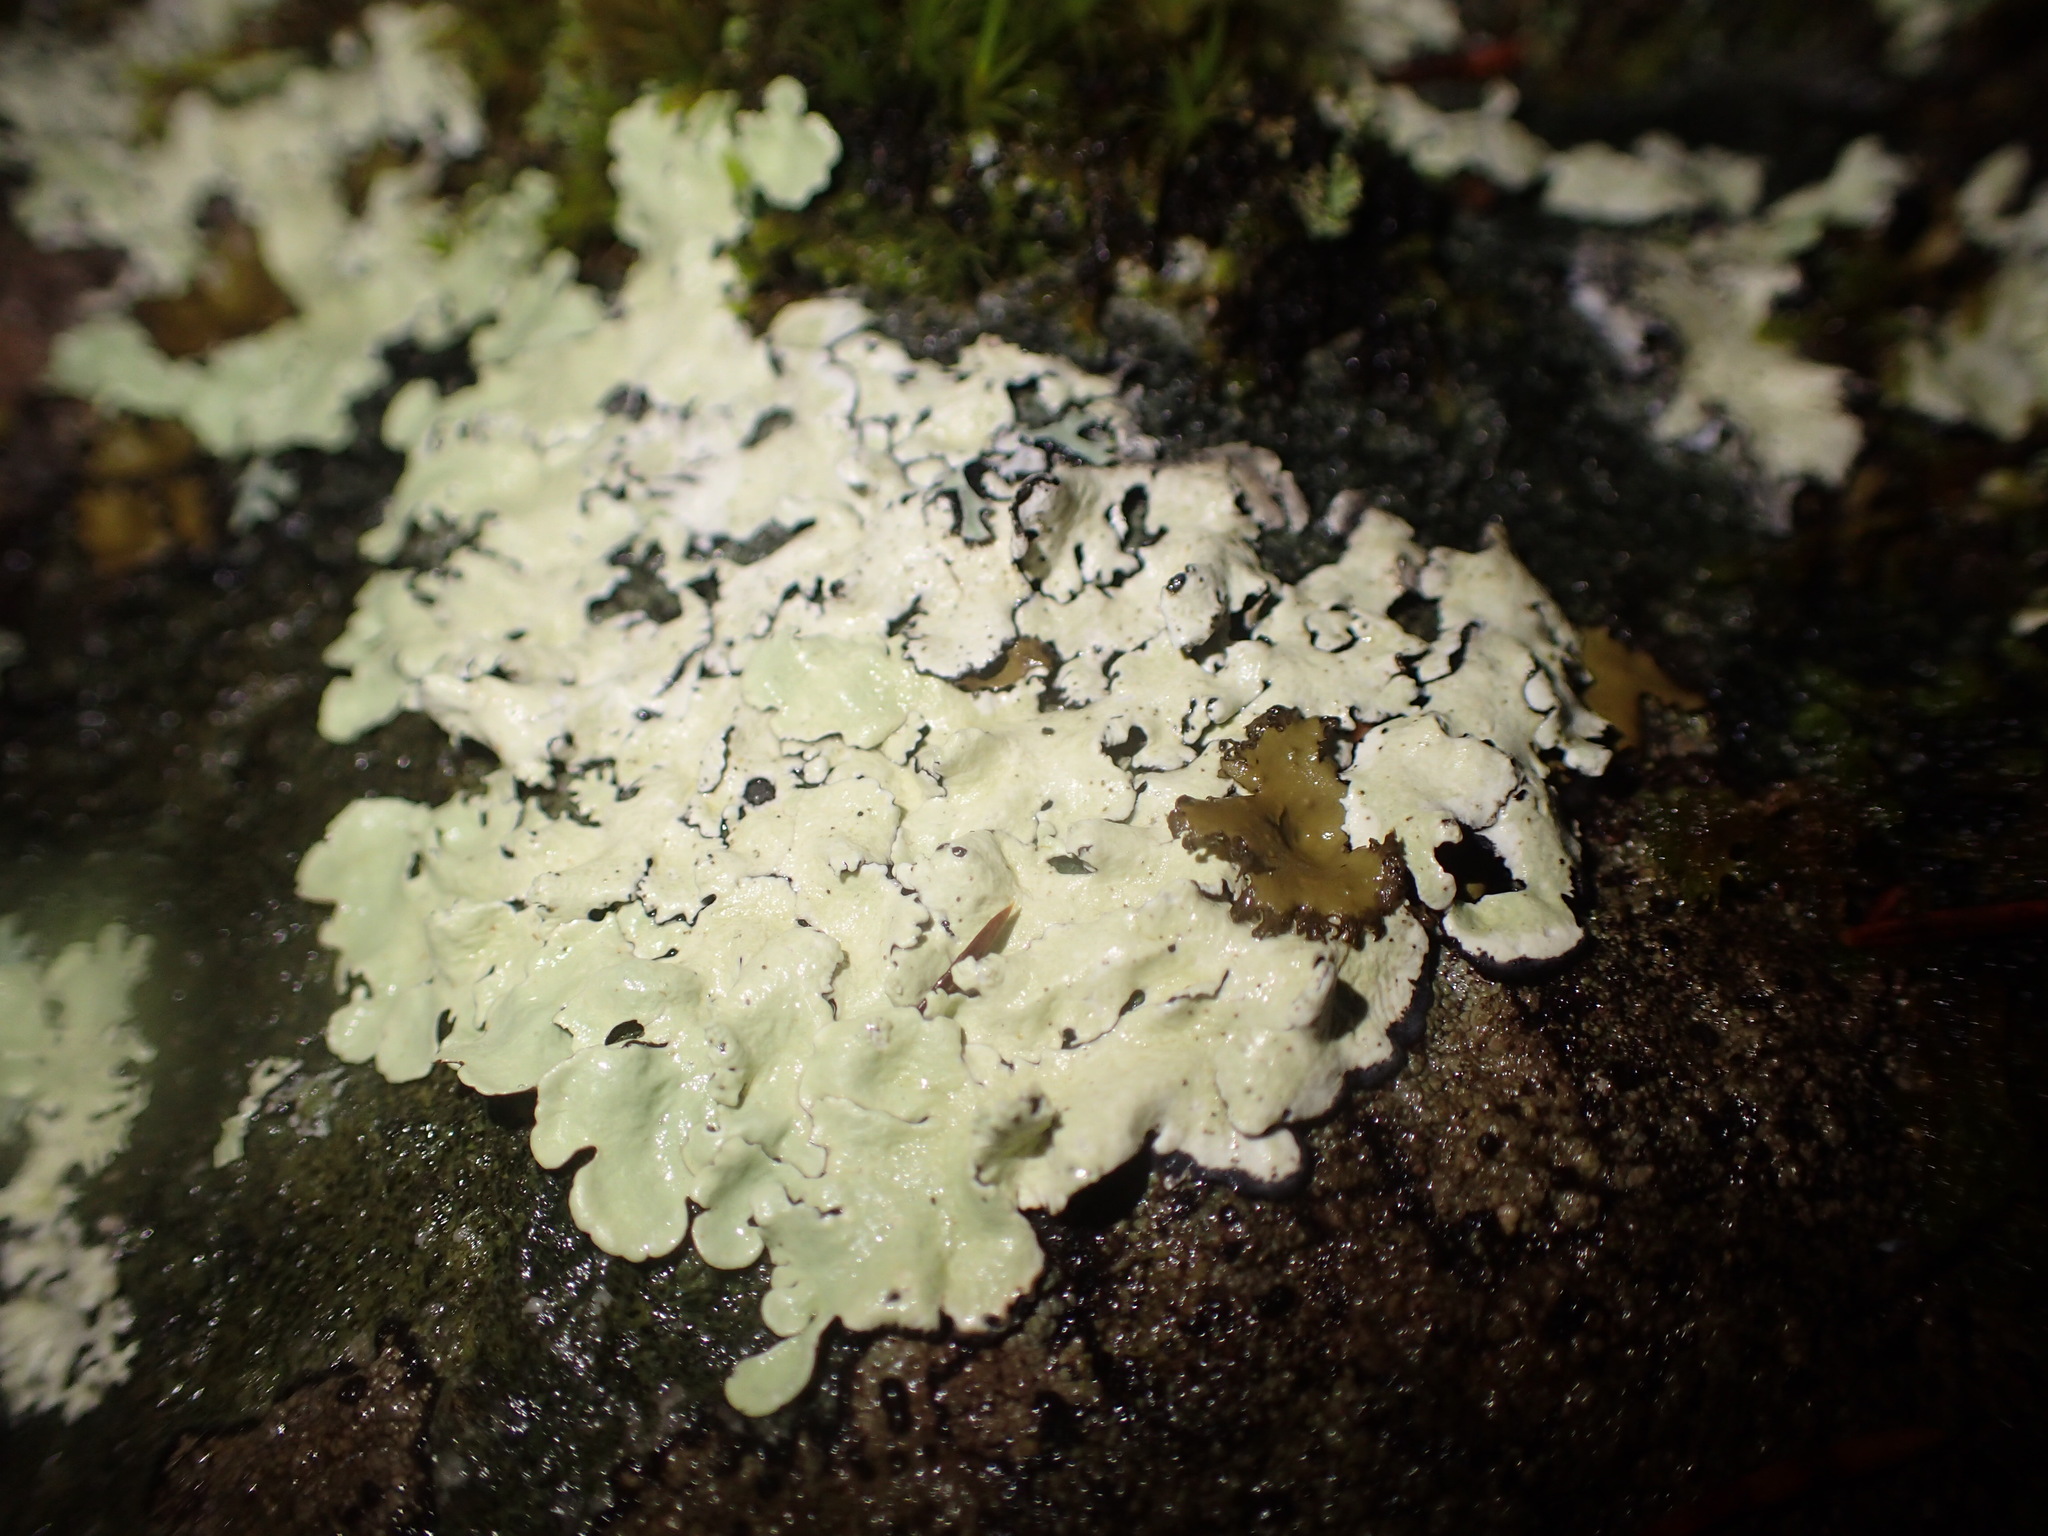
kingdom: Fungi
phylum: Ascomycota
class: Lecanoromycetes
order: Lecanorales
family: Parmeliaceae
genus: Flavoparmelia
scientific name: Flavoparmelia caperata
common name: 40-mile per hour lichen
